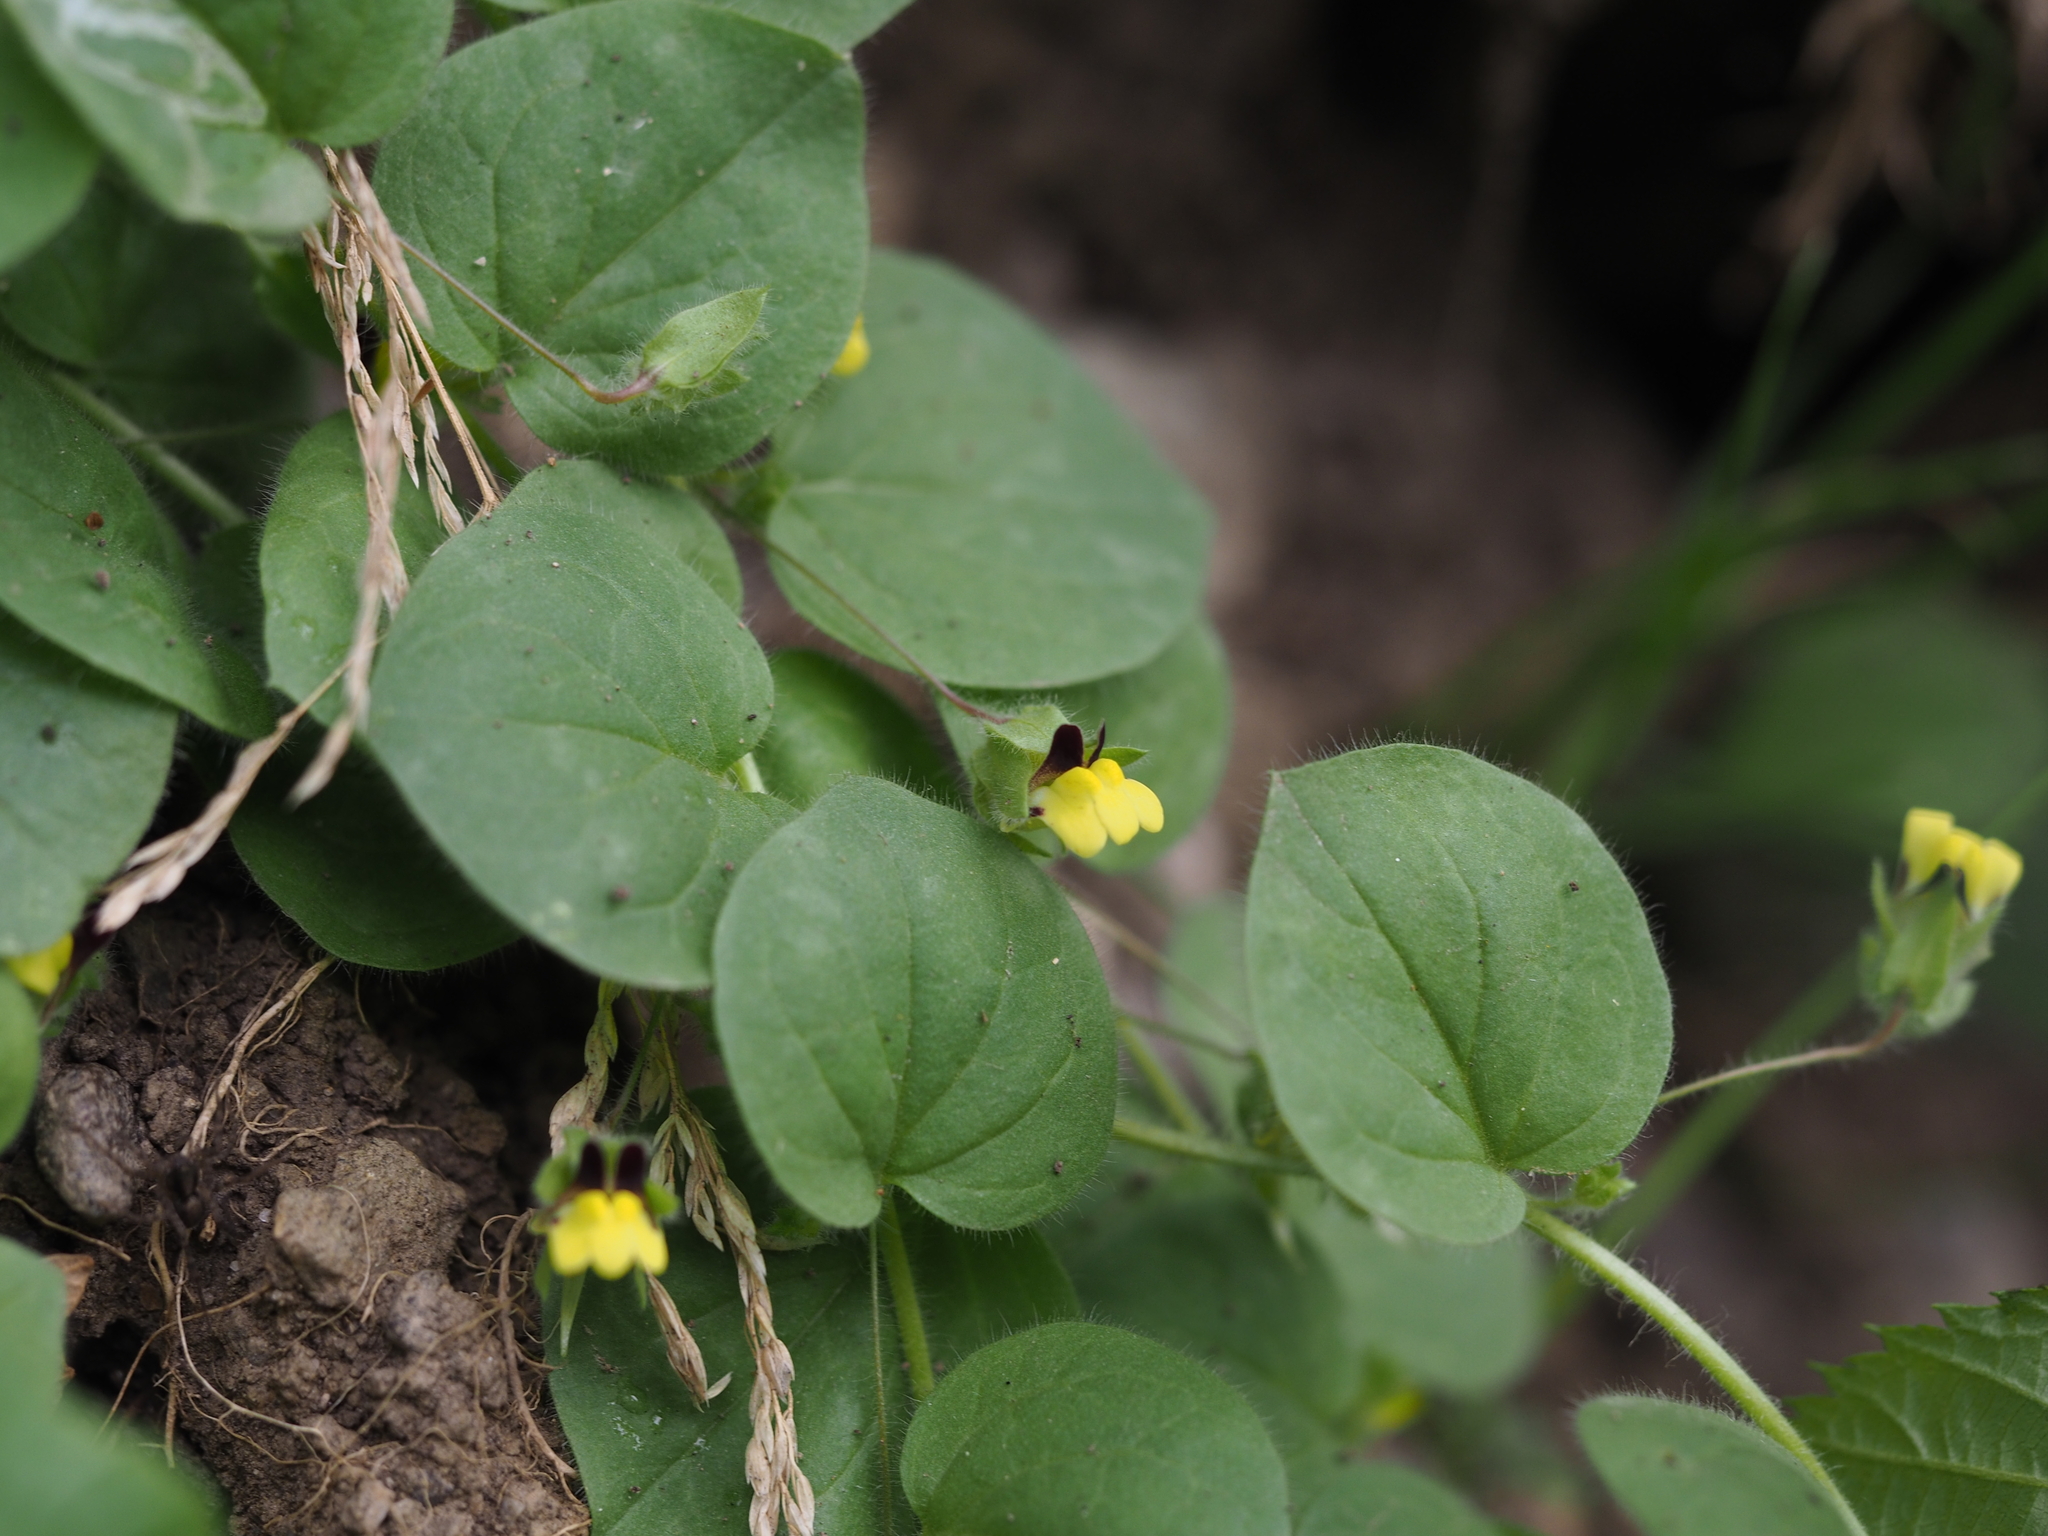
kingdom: Plantae
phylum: Tracheophyta
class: Magnoliopsida
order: Lamiales
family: Plantaginaceae
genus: Kickxia
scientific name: Kickxia spuria
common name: Round-leaved fluellen
